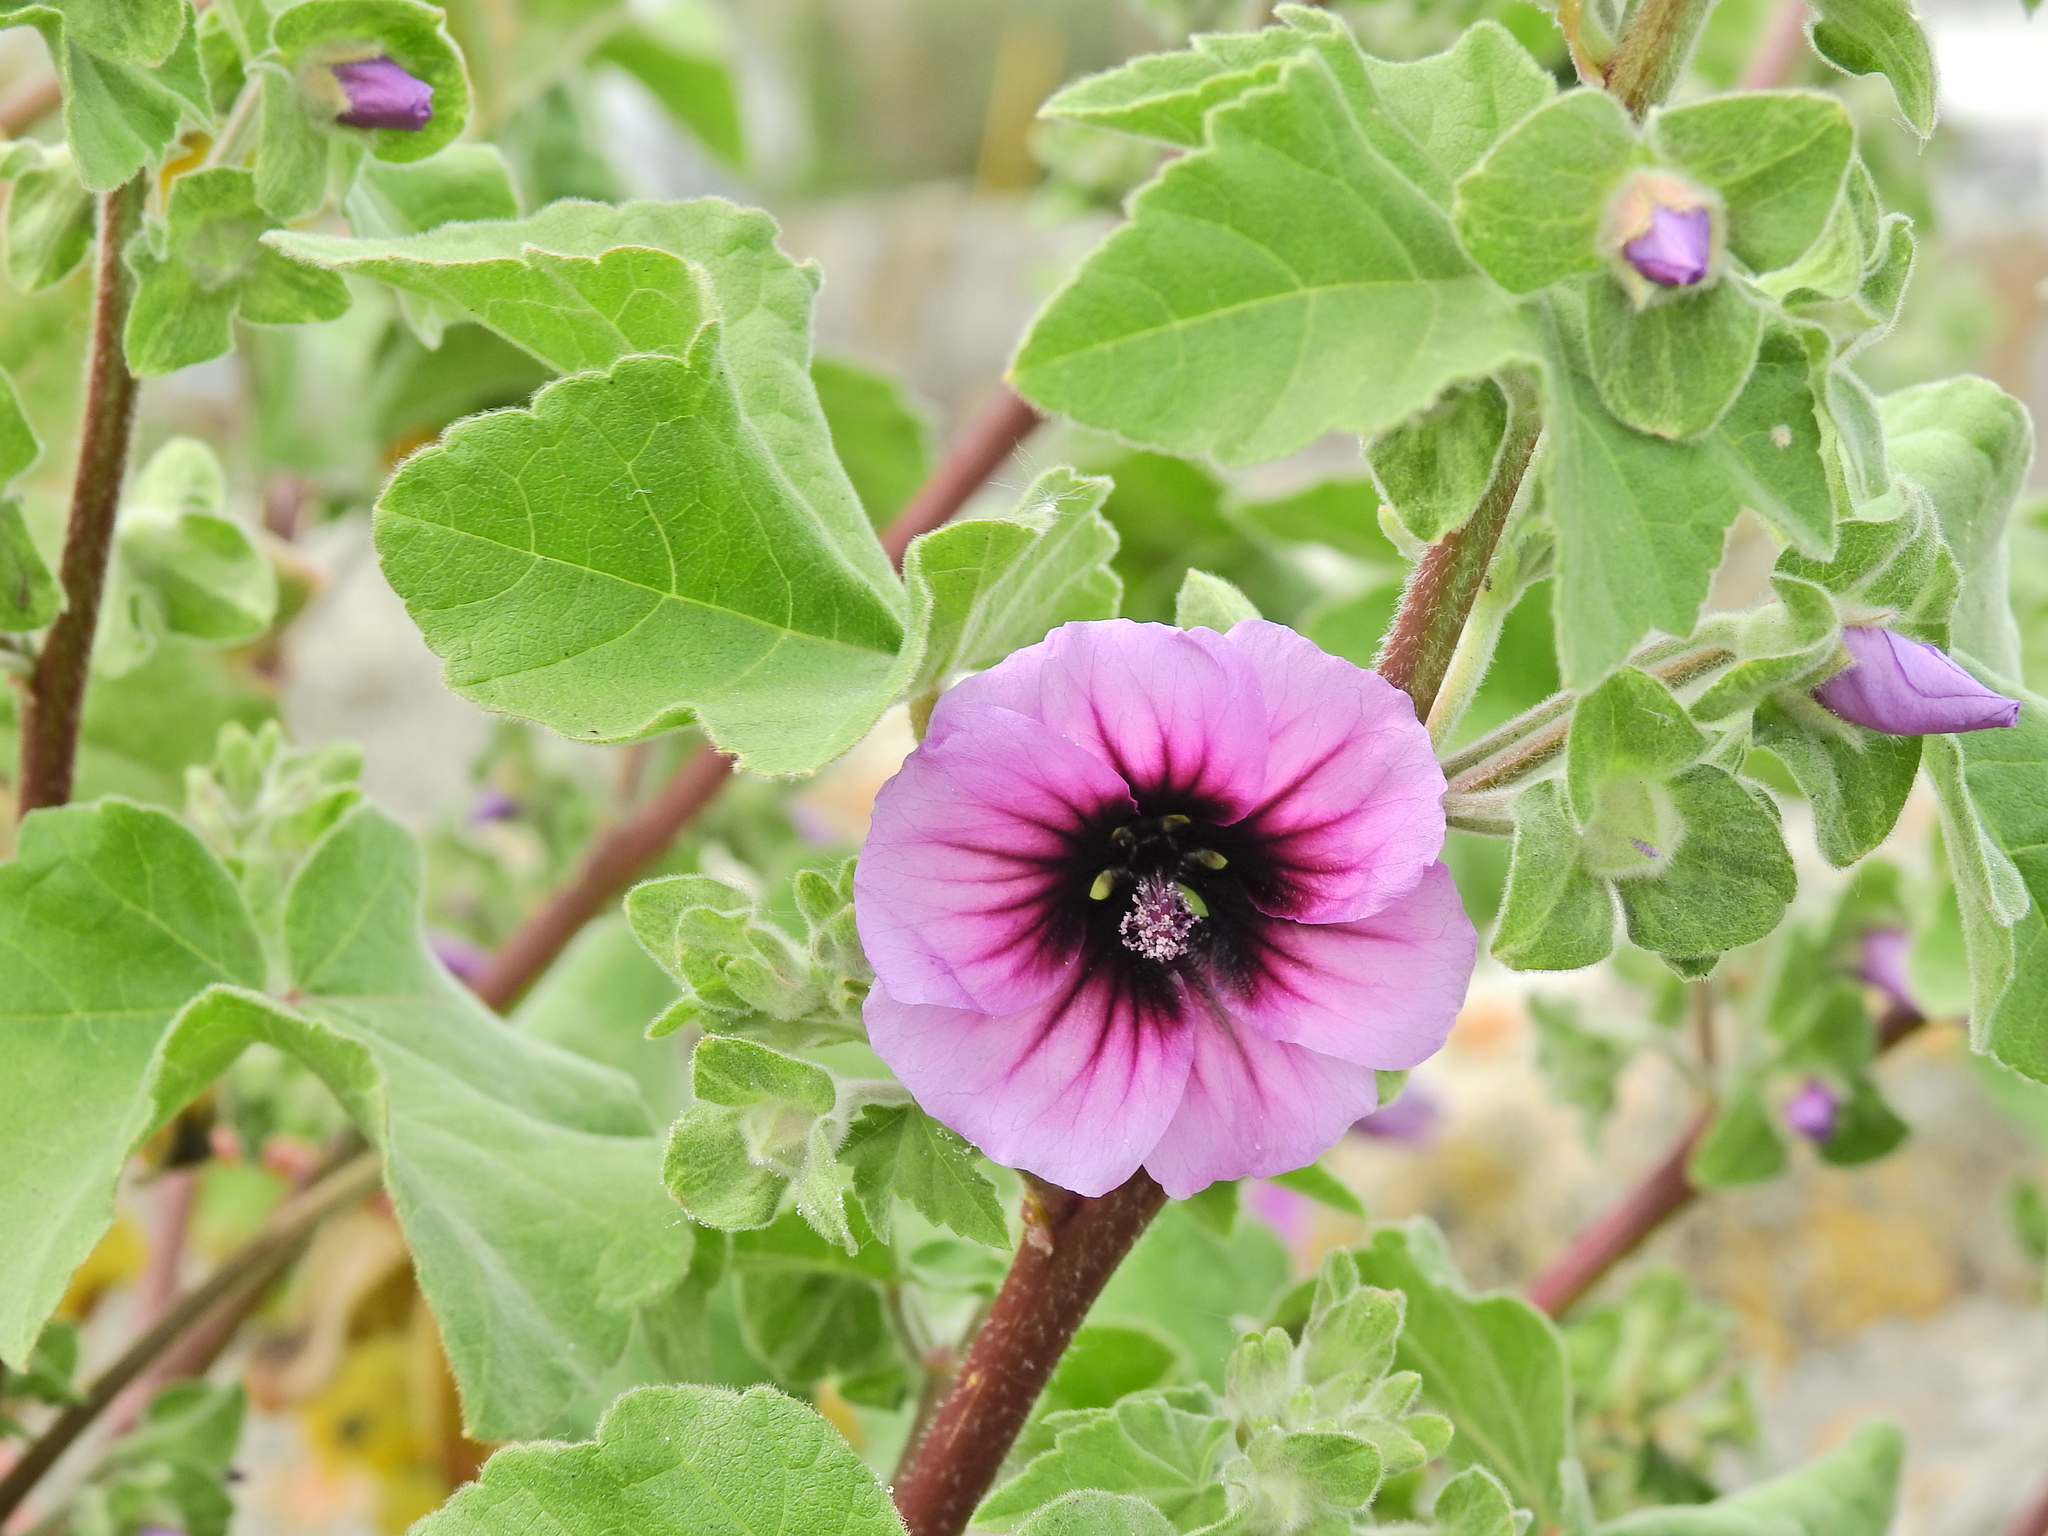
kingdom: Plantae
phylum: Tracheophyta
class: Magnoliopsida
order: Malvales
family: Malvaceae
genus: Malva
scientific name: Malva arborea
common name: Tree mallow
